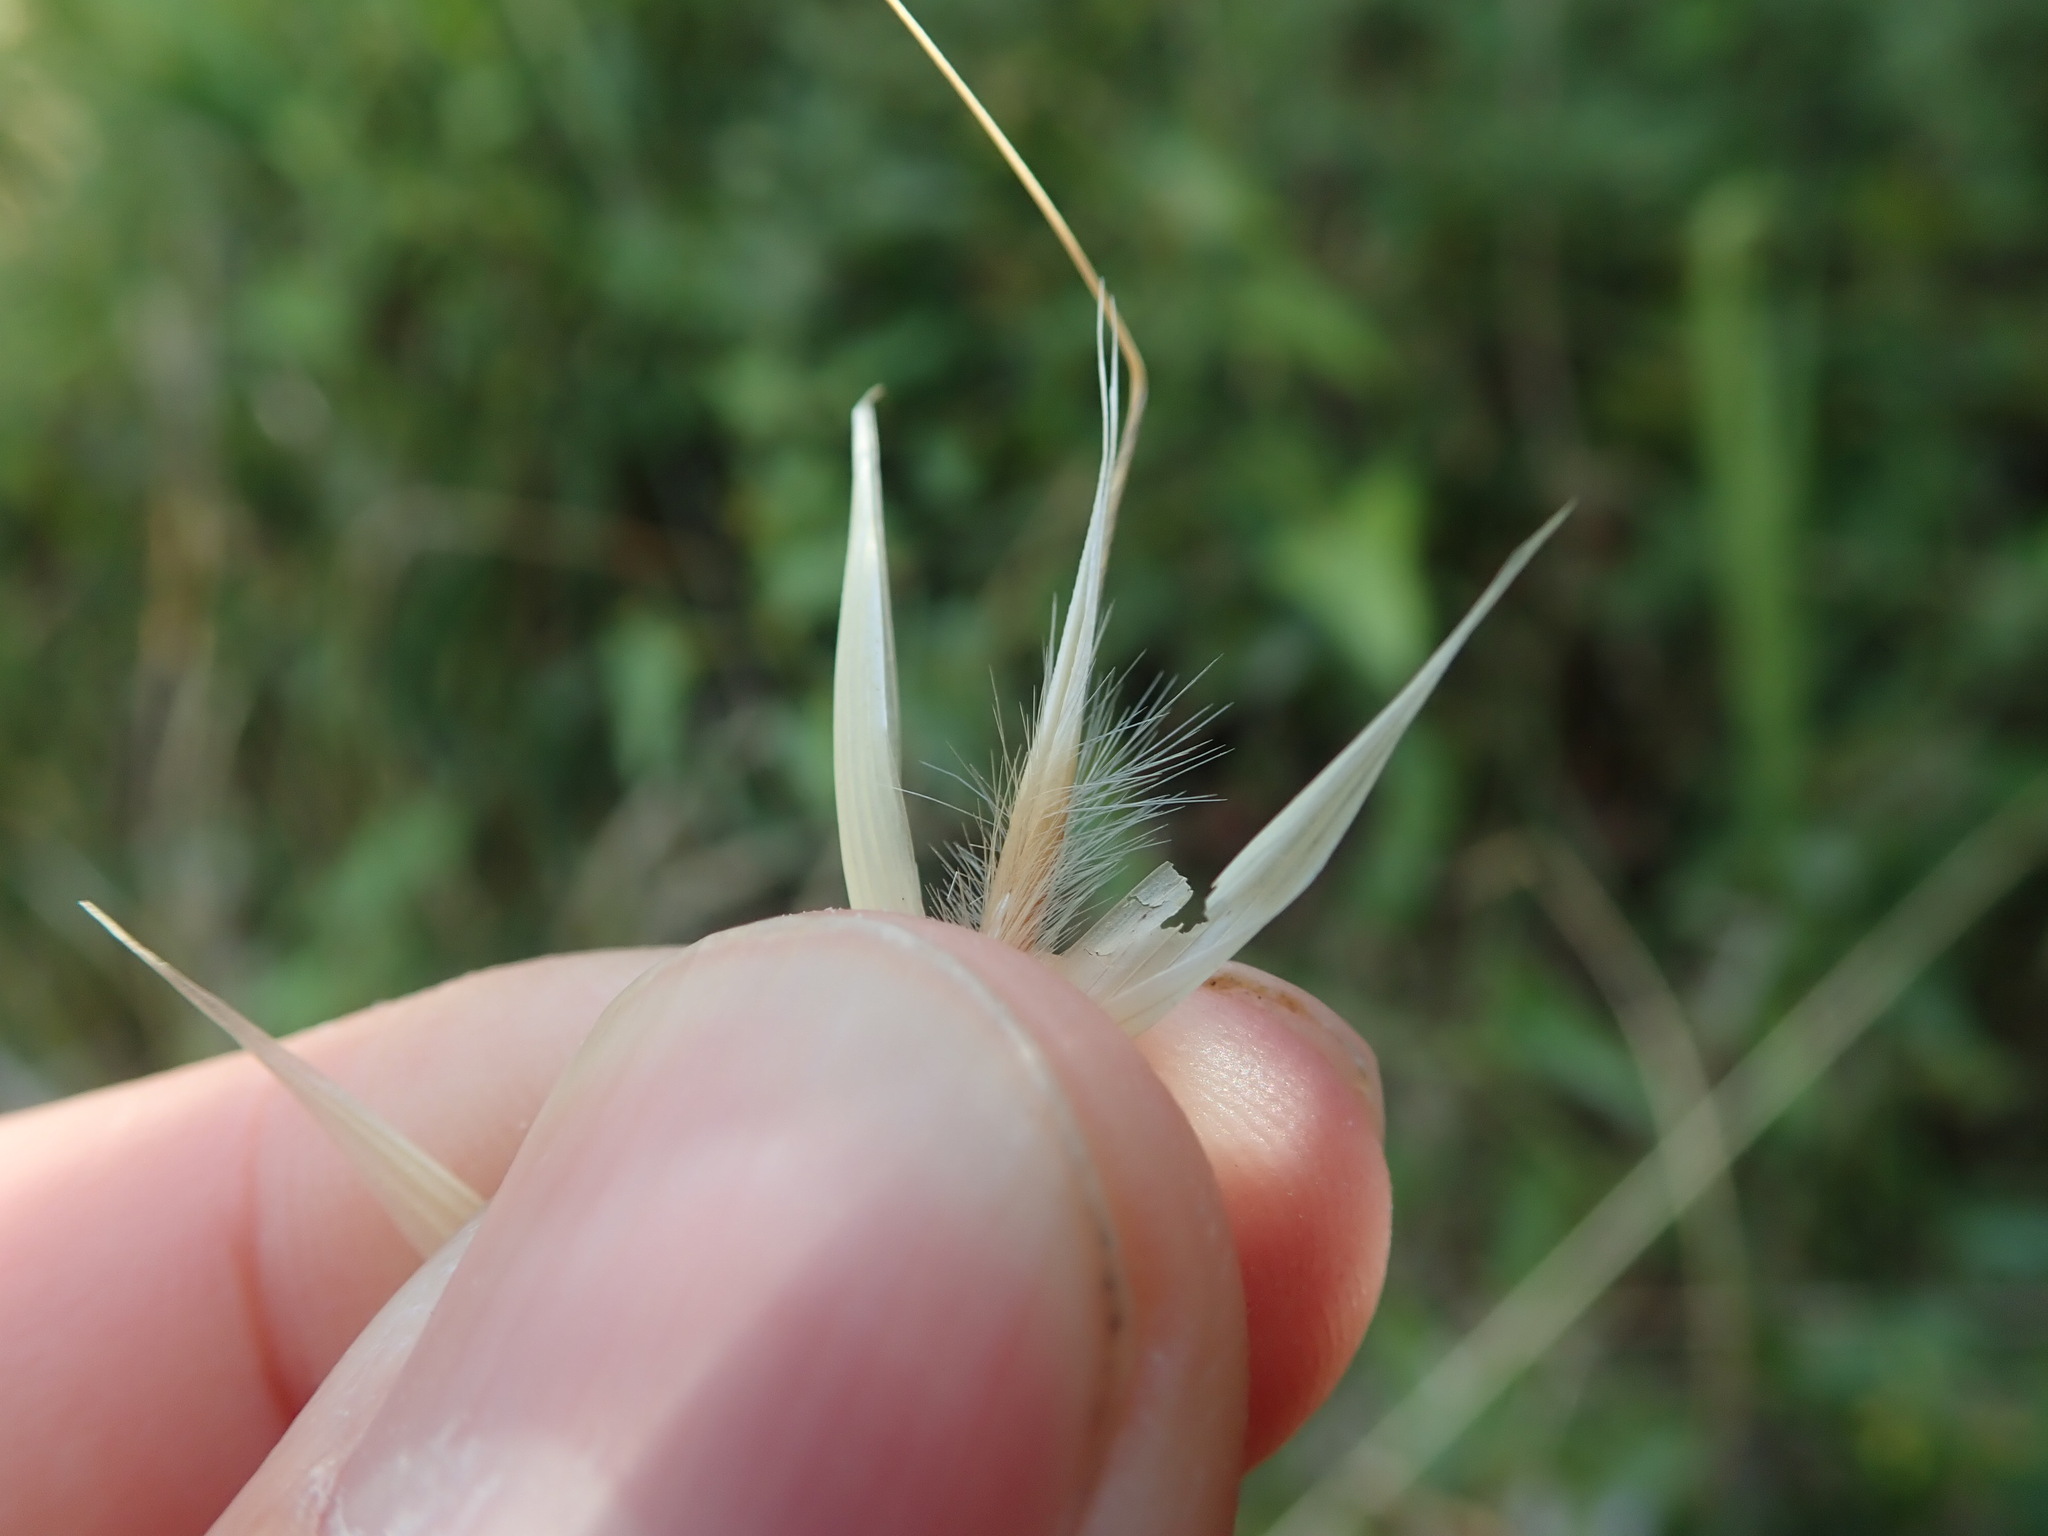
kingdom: Plantae
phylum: Tracheophyta
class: Liliopsida
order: Poales
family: Poaceae
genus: Avena
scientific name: Avena barbata
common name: Slender oat
